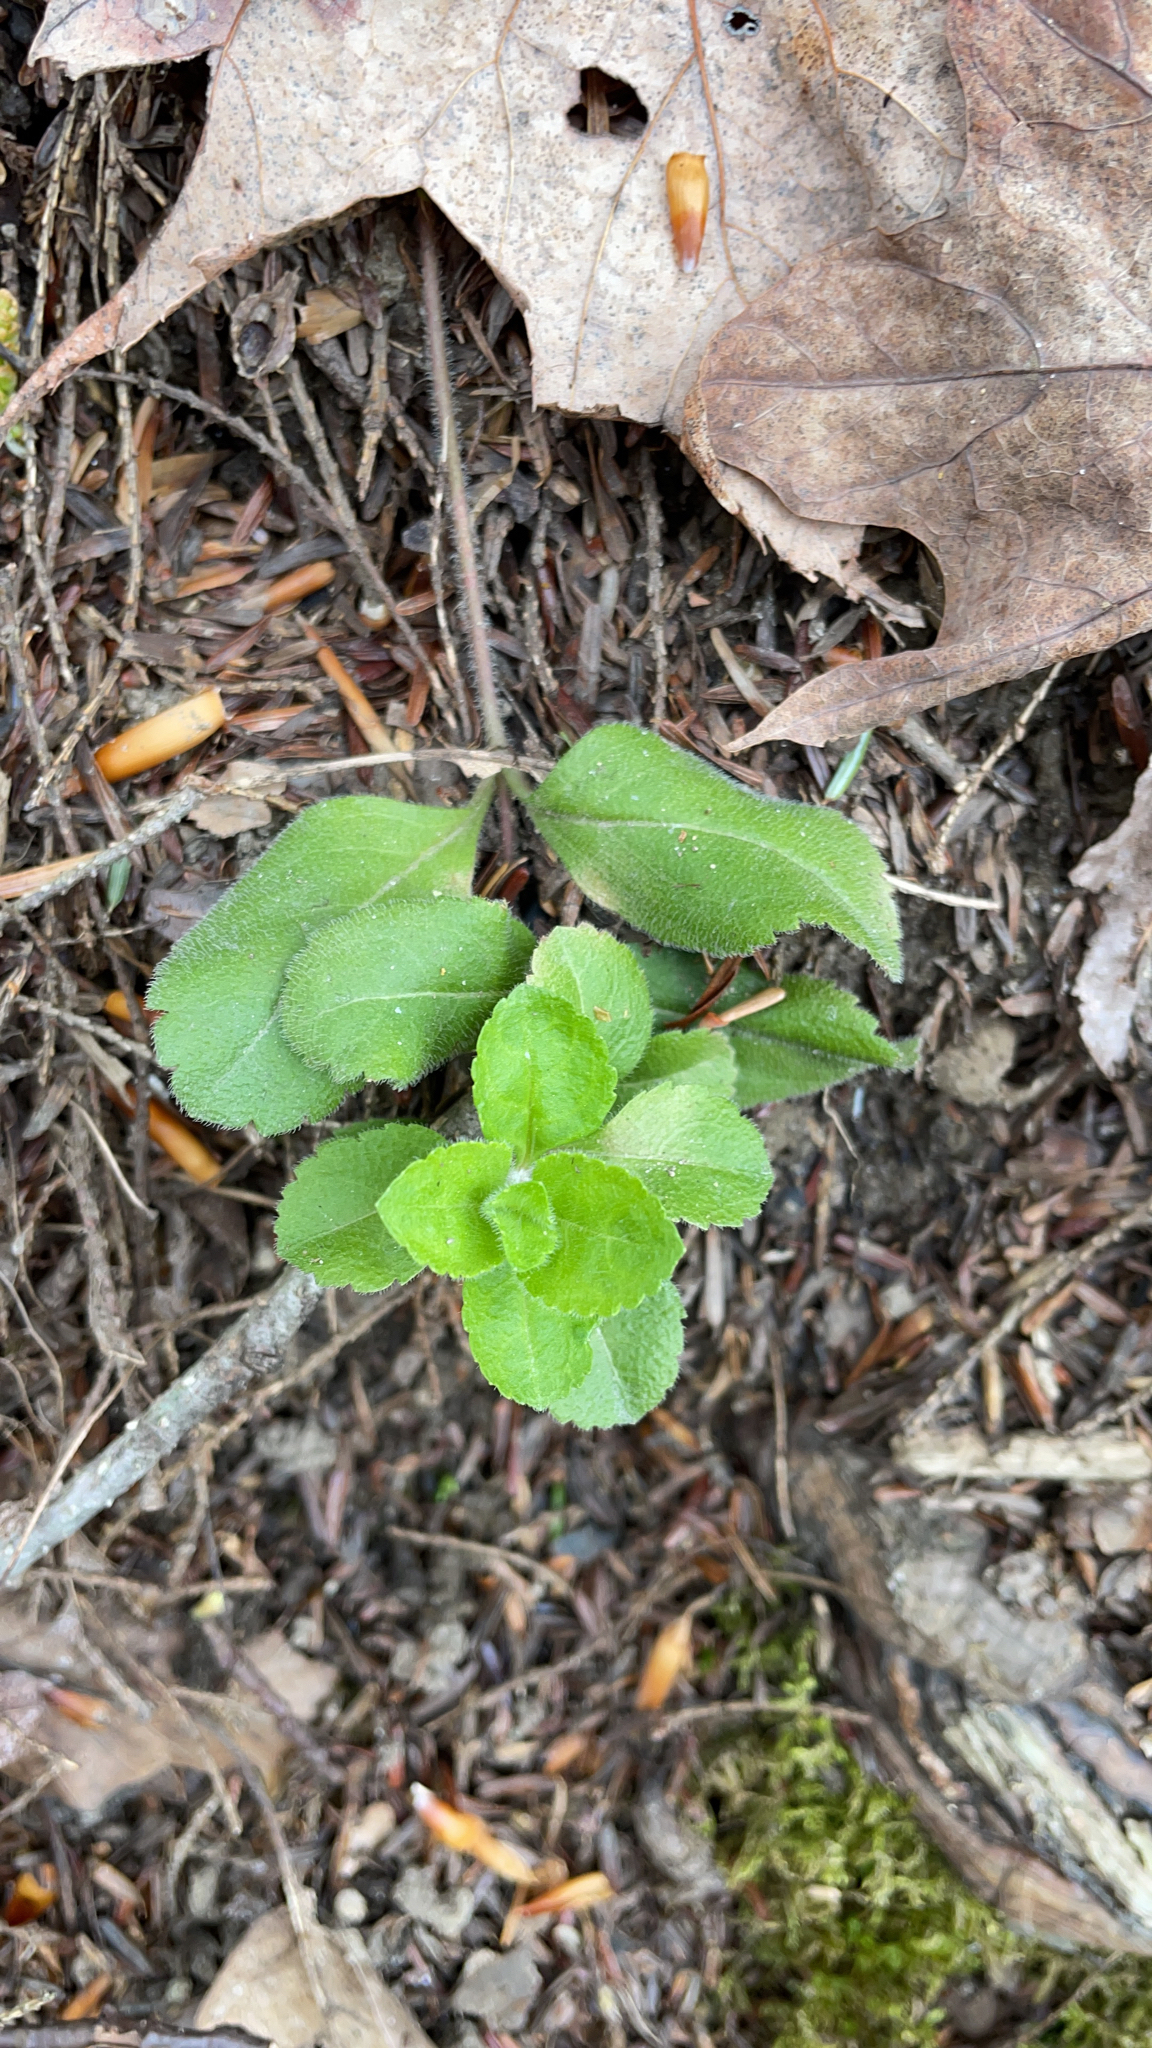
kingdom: Plantae
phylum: Tracheophyta
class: Magnoliopsida
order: Lamiales
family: Plantaginaceae
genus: Veronica
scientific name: Veronica officinalis
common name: Common speedwell
